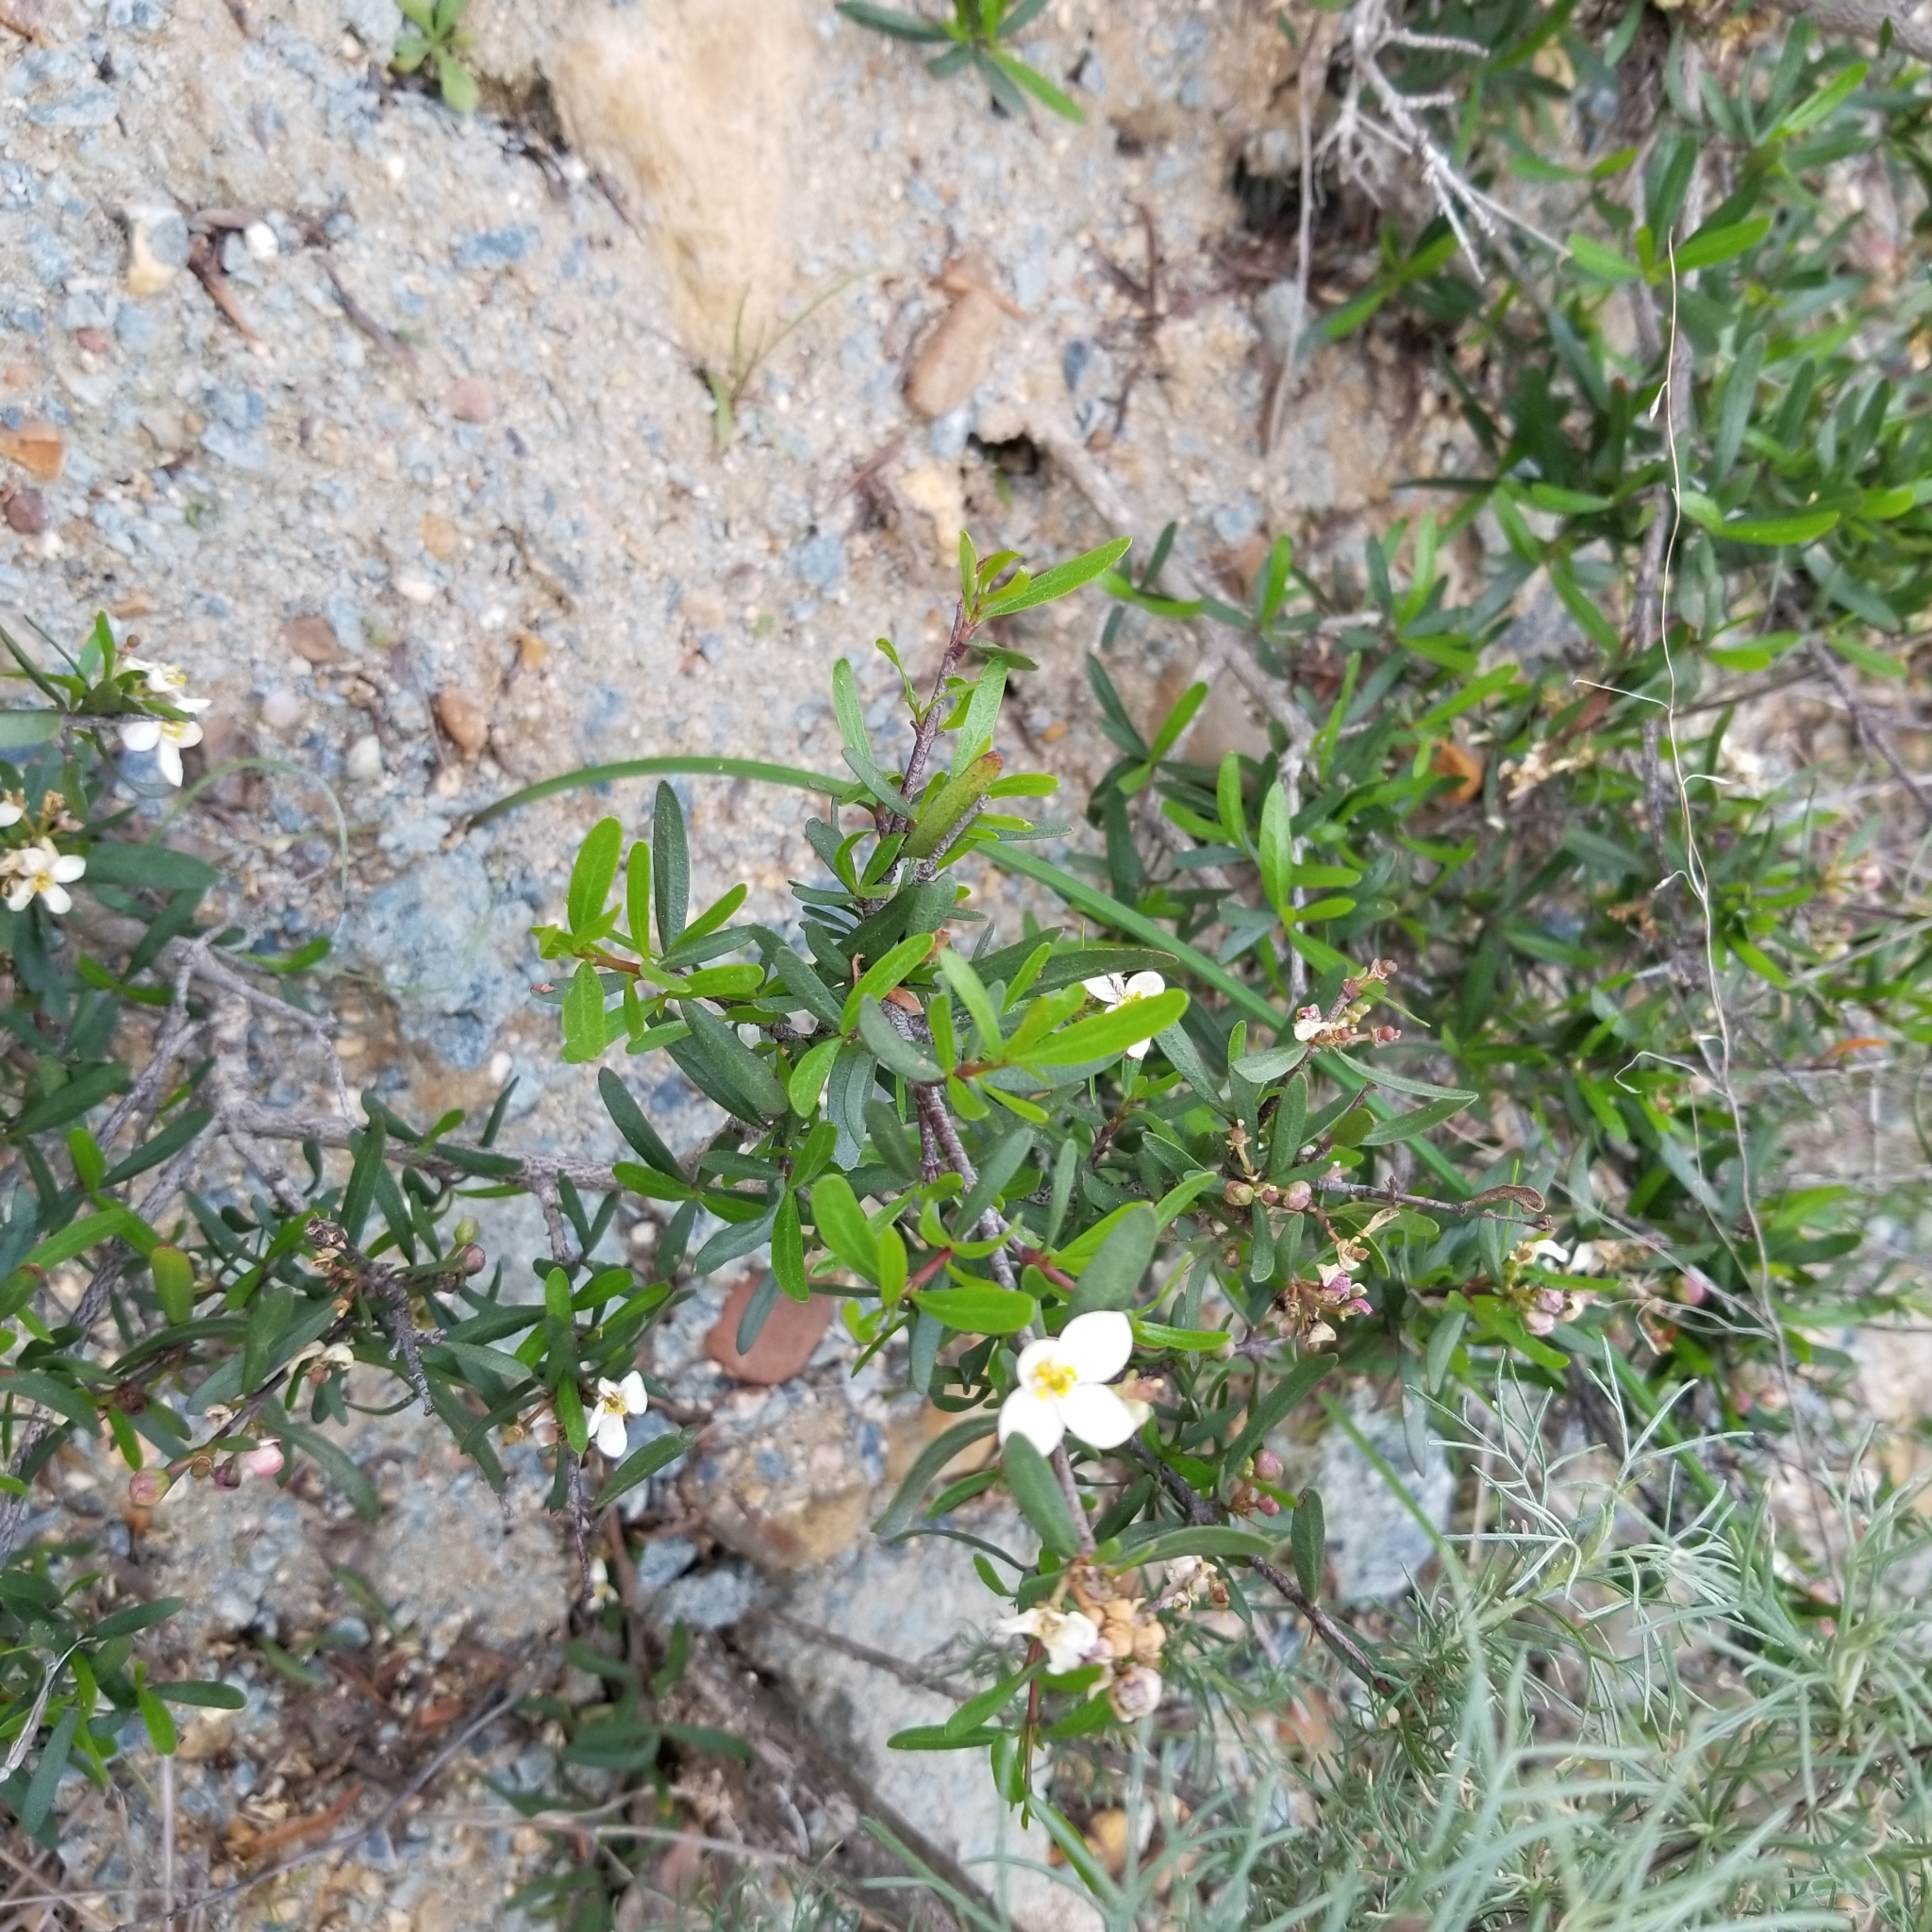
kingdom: Plantae
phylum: Tracheophyta
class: Magnoliopsida
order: Sapindales
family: Rutaceae
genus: Cneoridium
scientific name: Cneoridium dumosum
